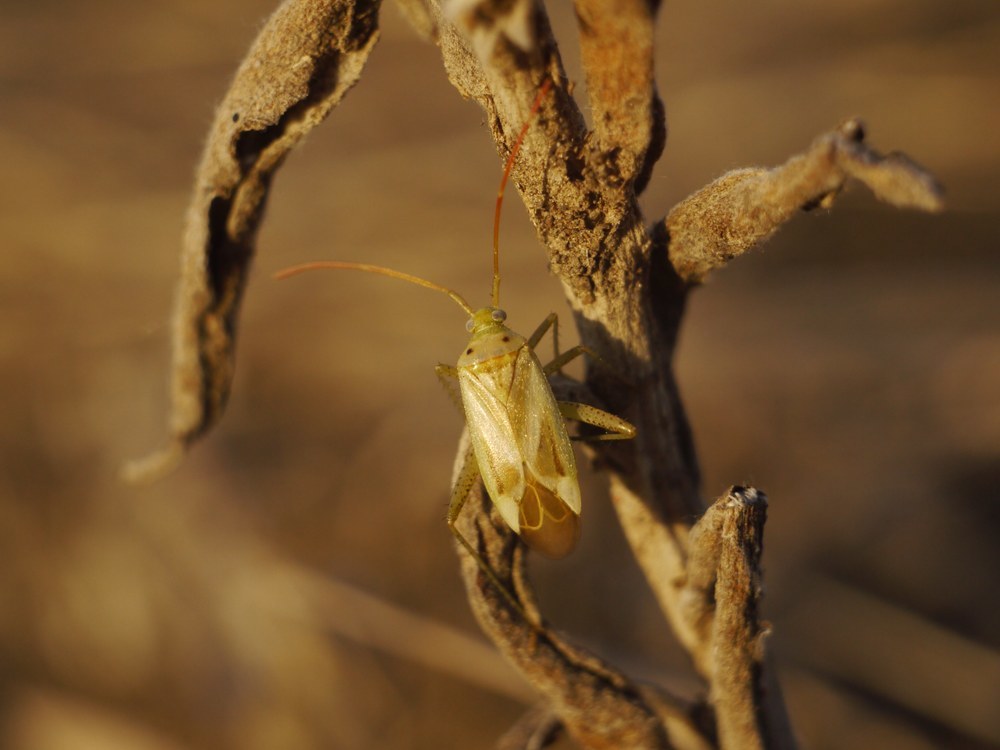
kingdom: Animalia
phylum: Arthropoda
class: Insecta
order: Hemiptera
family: Miridae
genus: Adelphocoris
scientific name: Adelphocoris lineolatus
